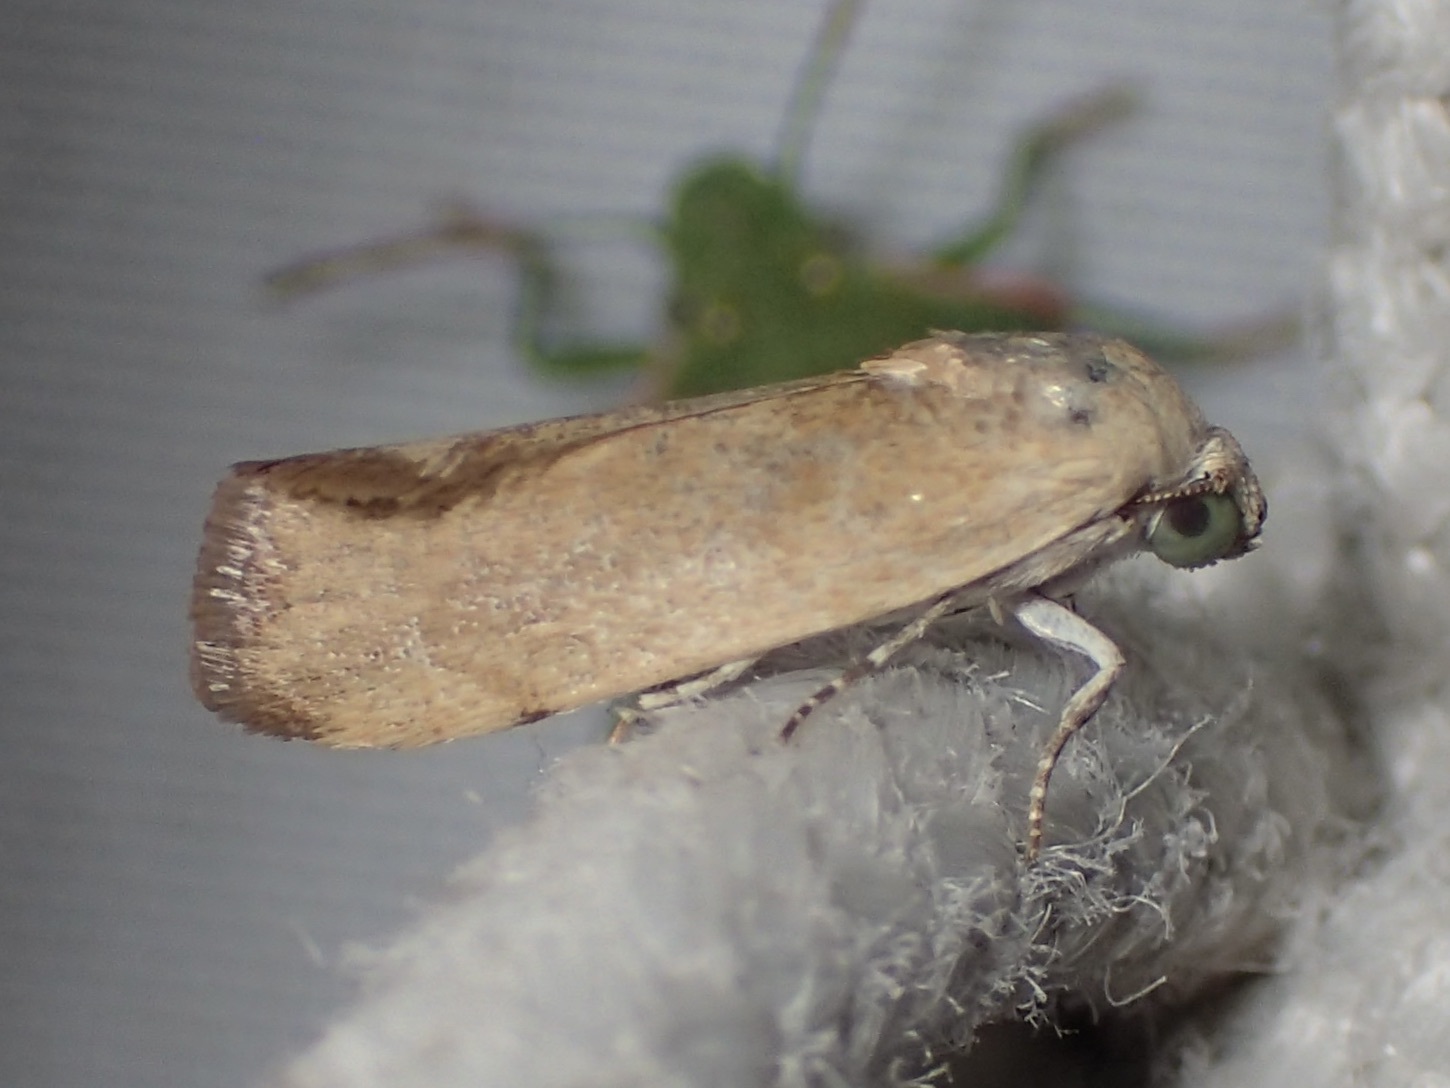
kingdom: Animalia
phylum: Arthropoda
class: Insecta
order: Lepidoptera
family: Noctuidae
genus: Acontia
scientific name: Acontia fasciatella
